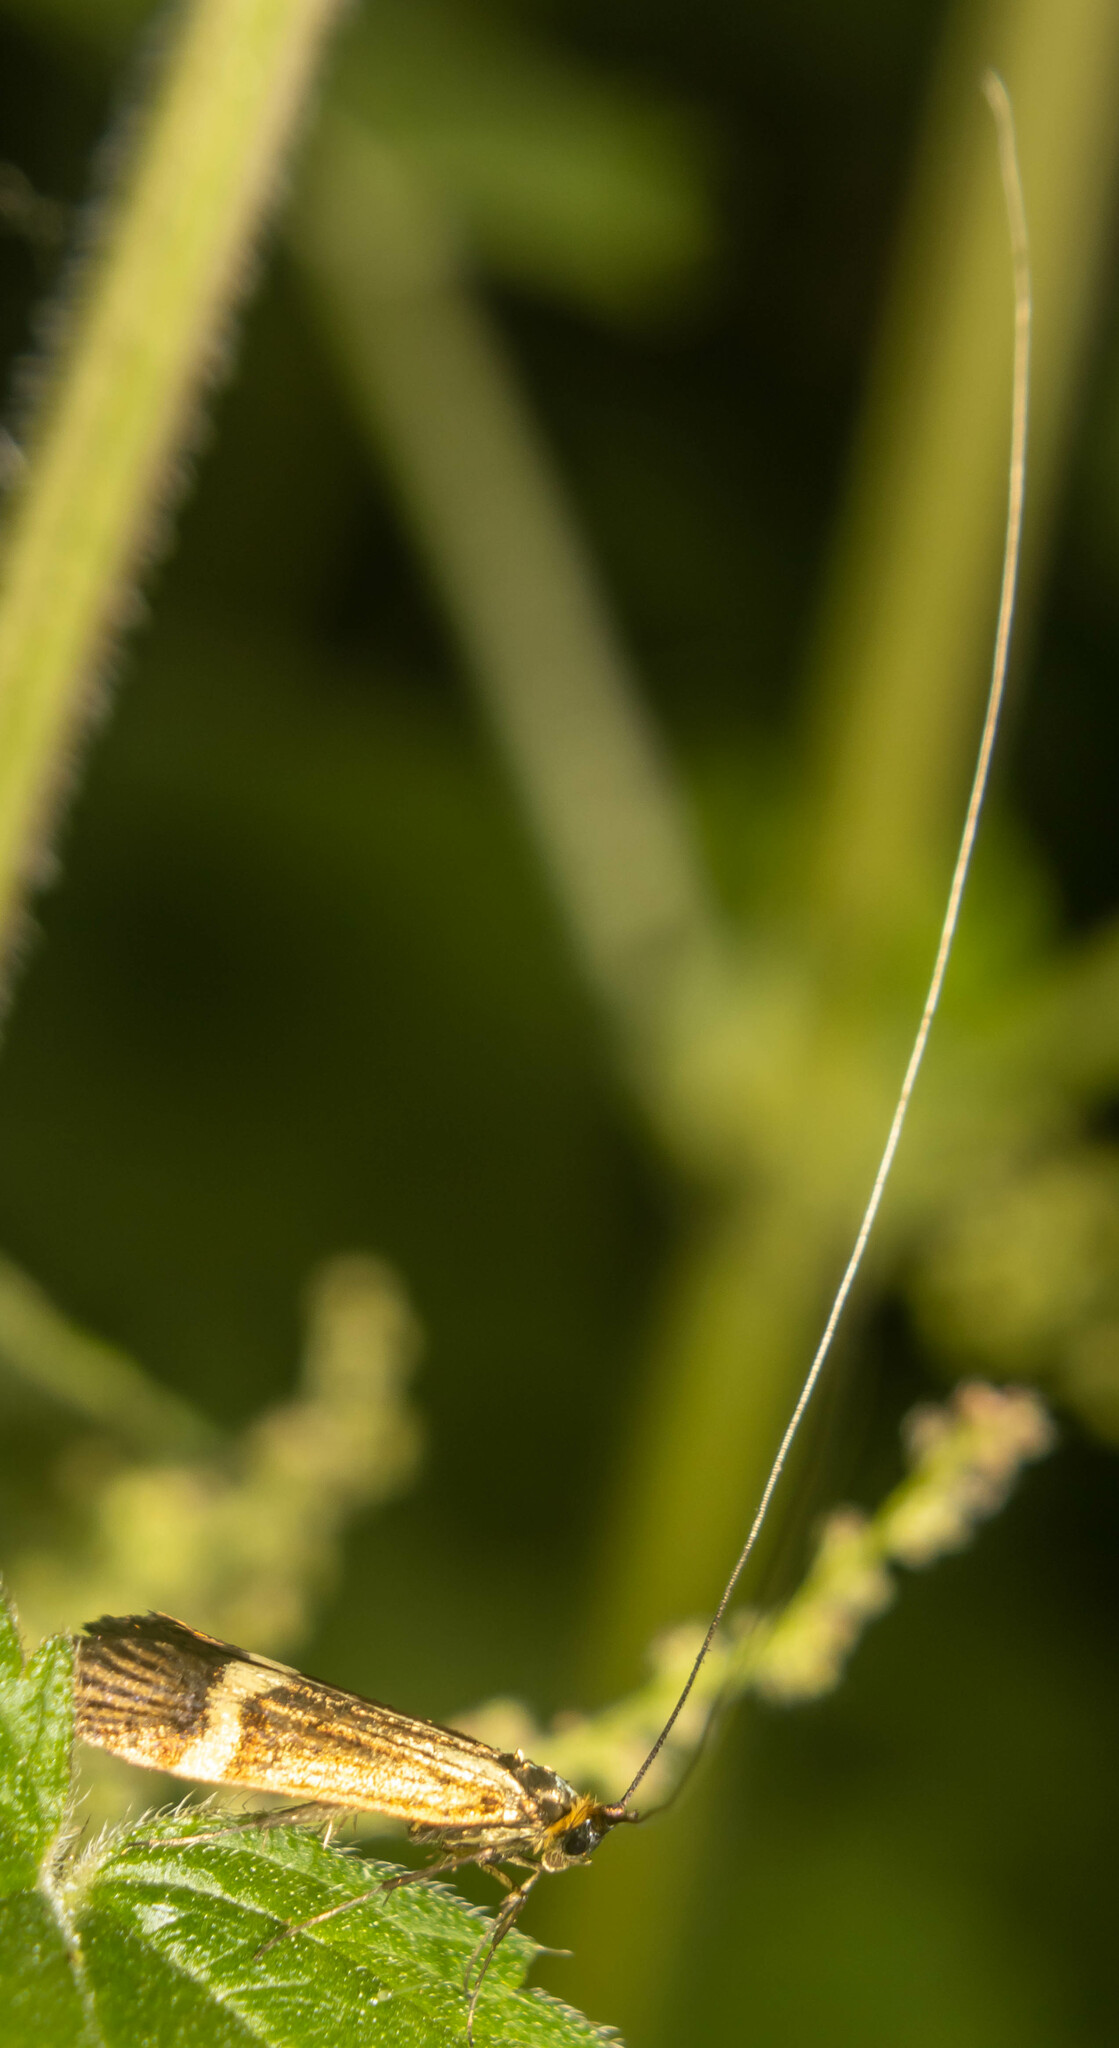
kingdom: Animalia
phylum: Arthropoda
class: Insecta
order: Lepidoptera
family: Adelidae
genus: Nemophora
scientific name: Nemophora degeerella
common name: Yellow-barred long-horn
